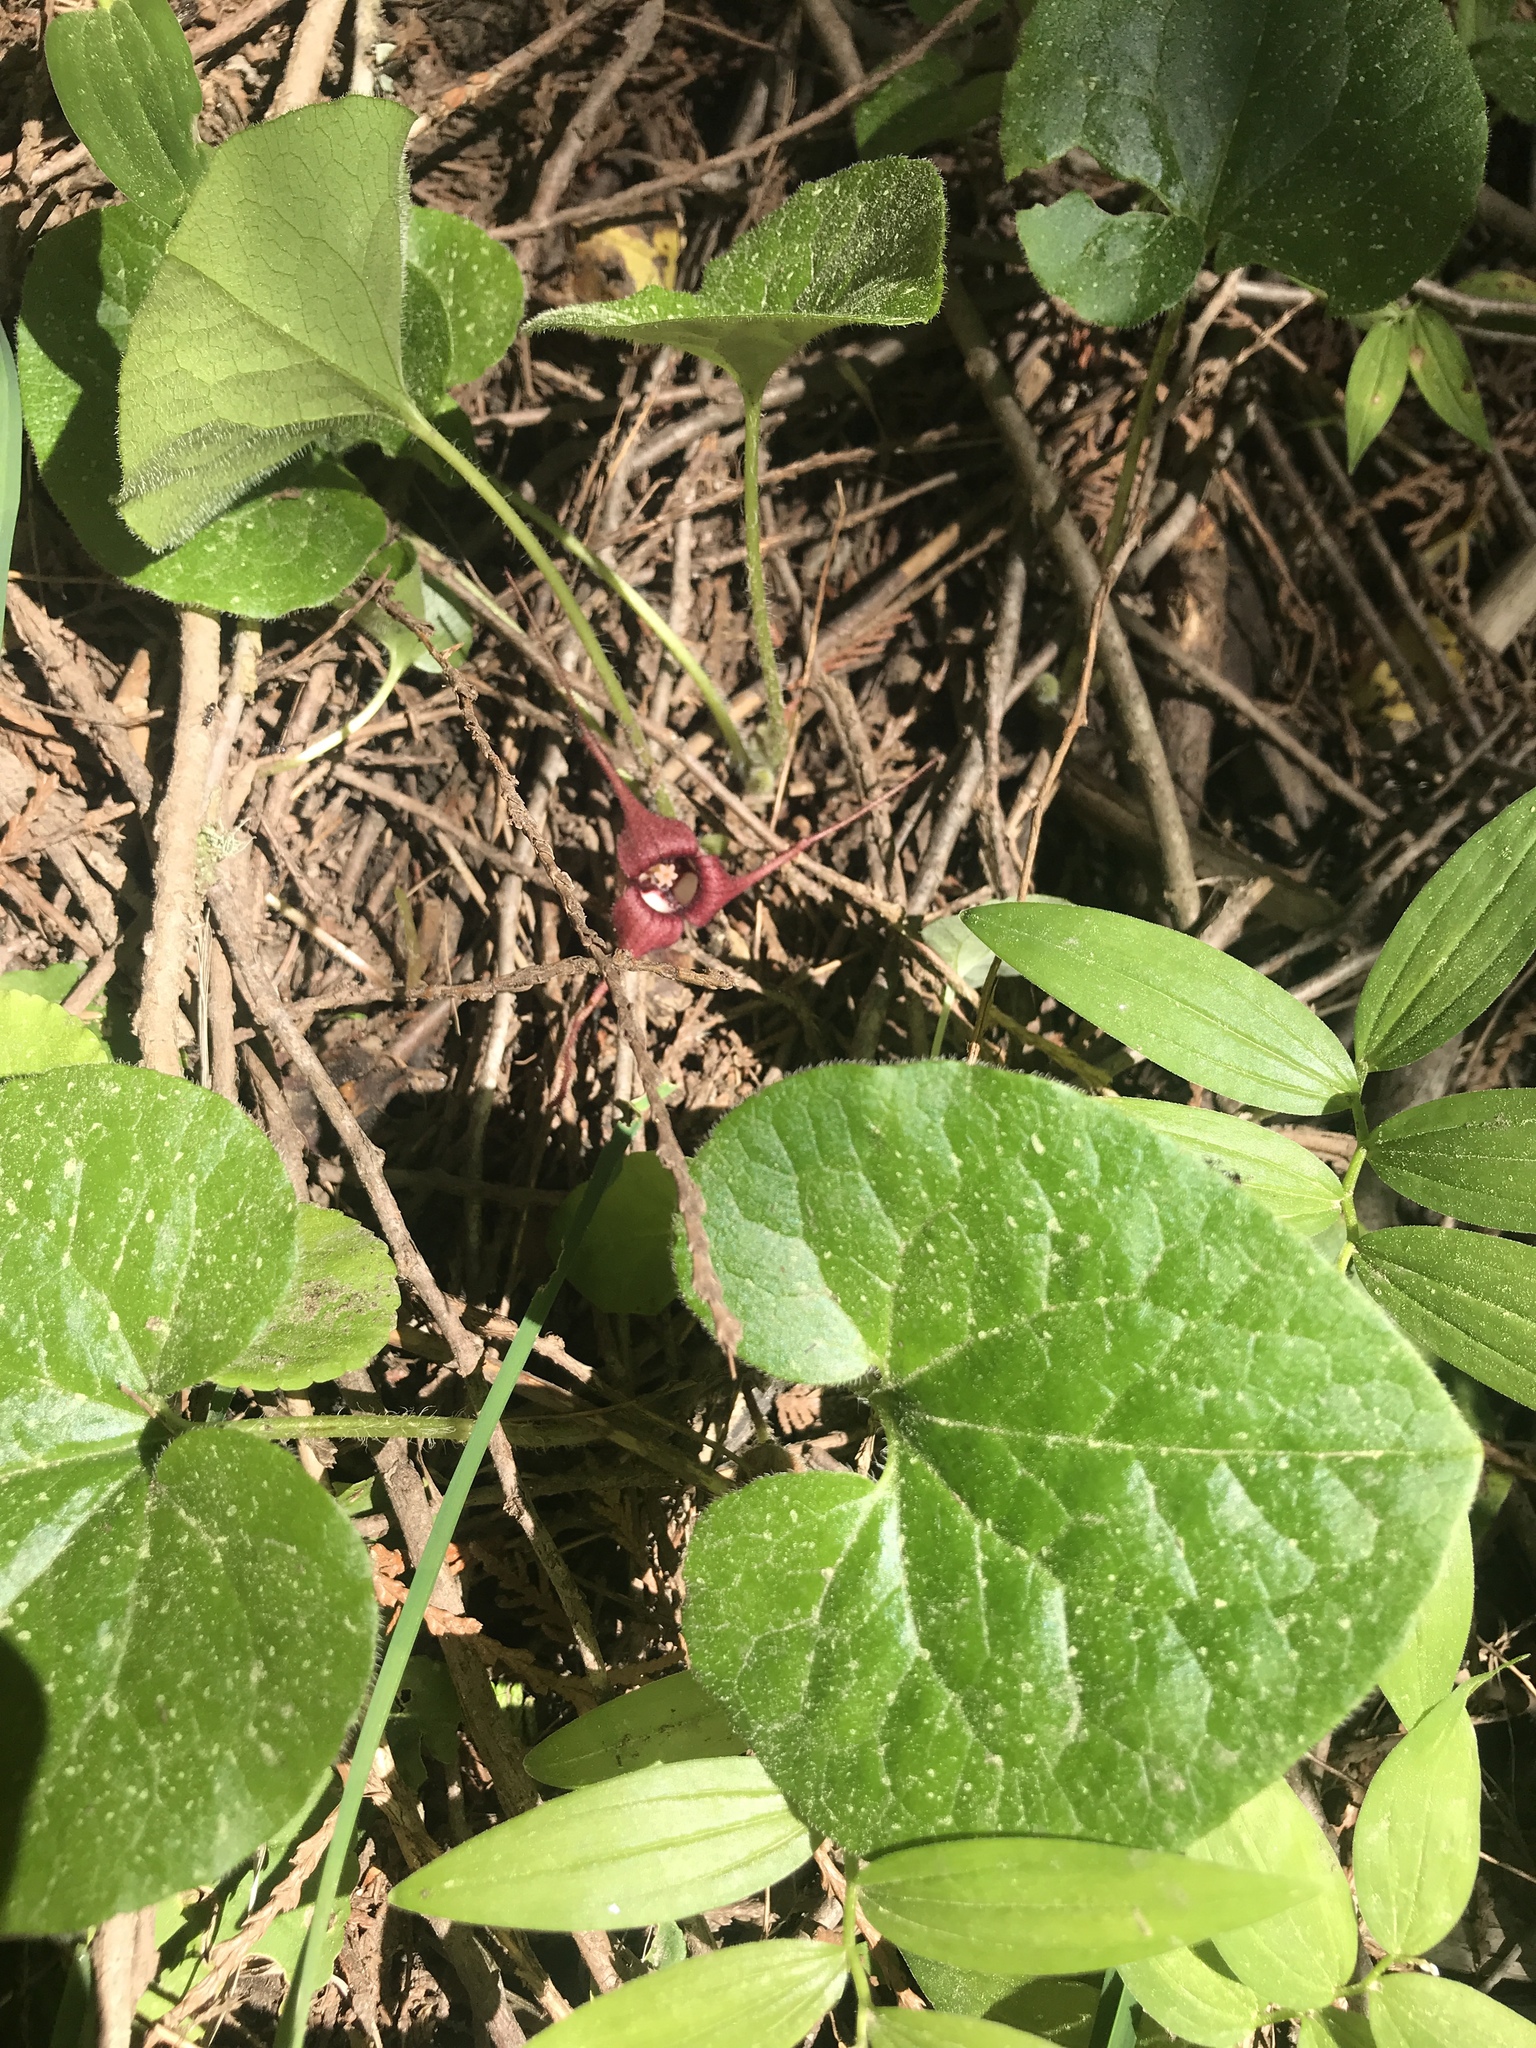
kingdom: Plantae
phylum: Tracheophyta
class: Magnoliopsida
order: Piperales
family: Aristolochiaceae
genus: Asarum
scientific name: Asarum caudatum
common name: Wild ginger
